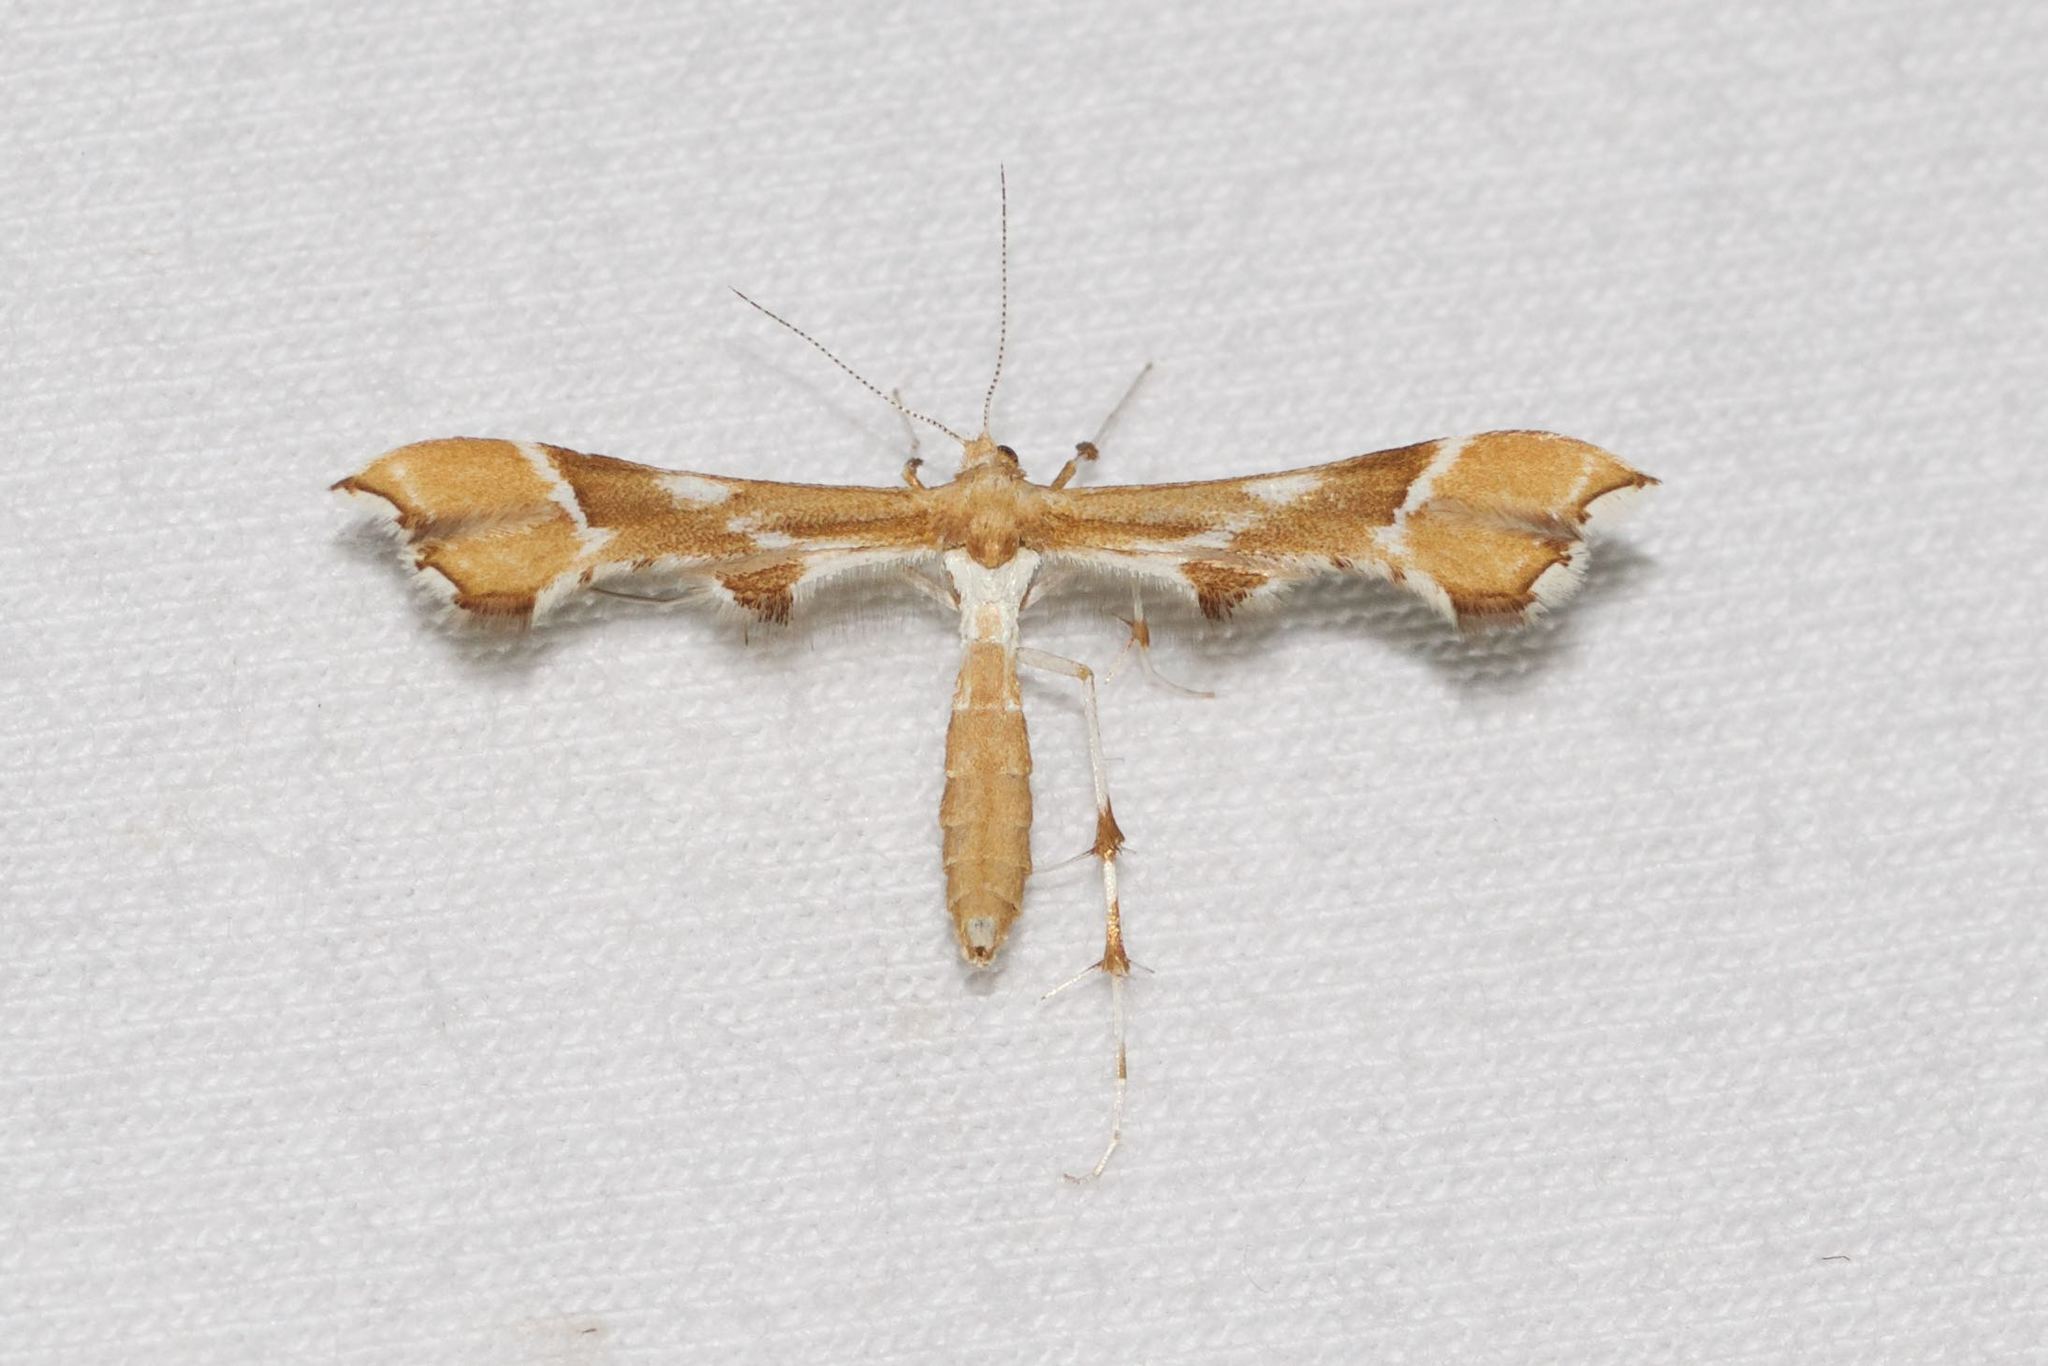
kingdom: Animalia
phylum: Arthropoda
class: Insecta
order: Lepidoptera
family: Pterophoridae
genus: Cnaemidophorus
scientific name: Cnaemidophorus rhododactyla
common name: Rose plume
